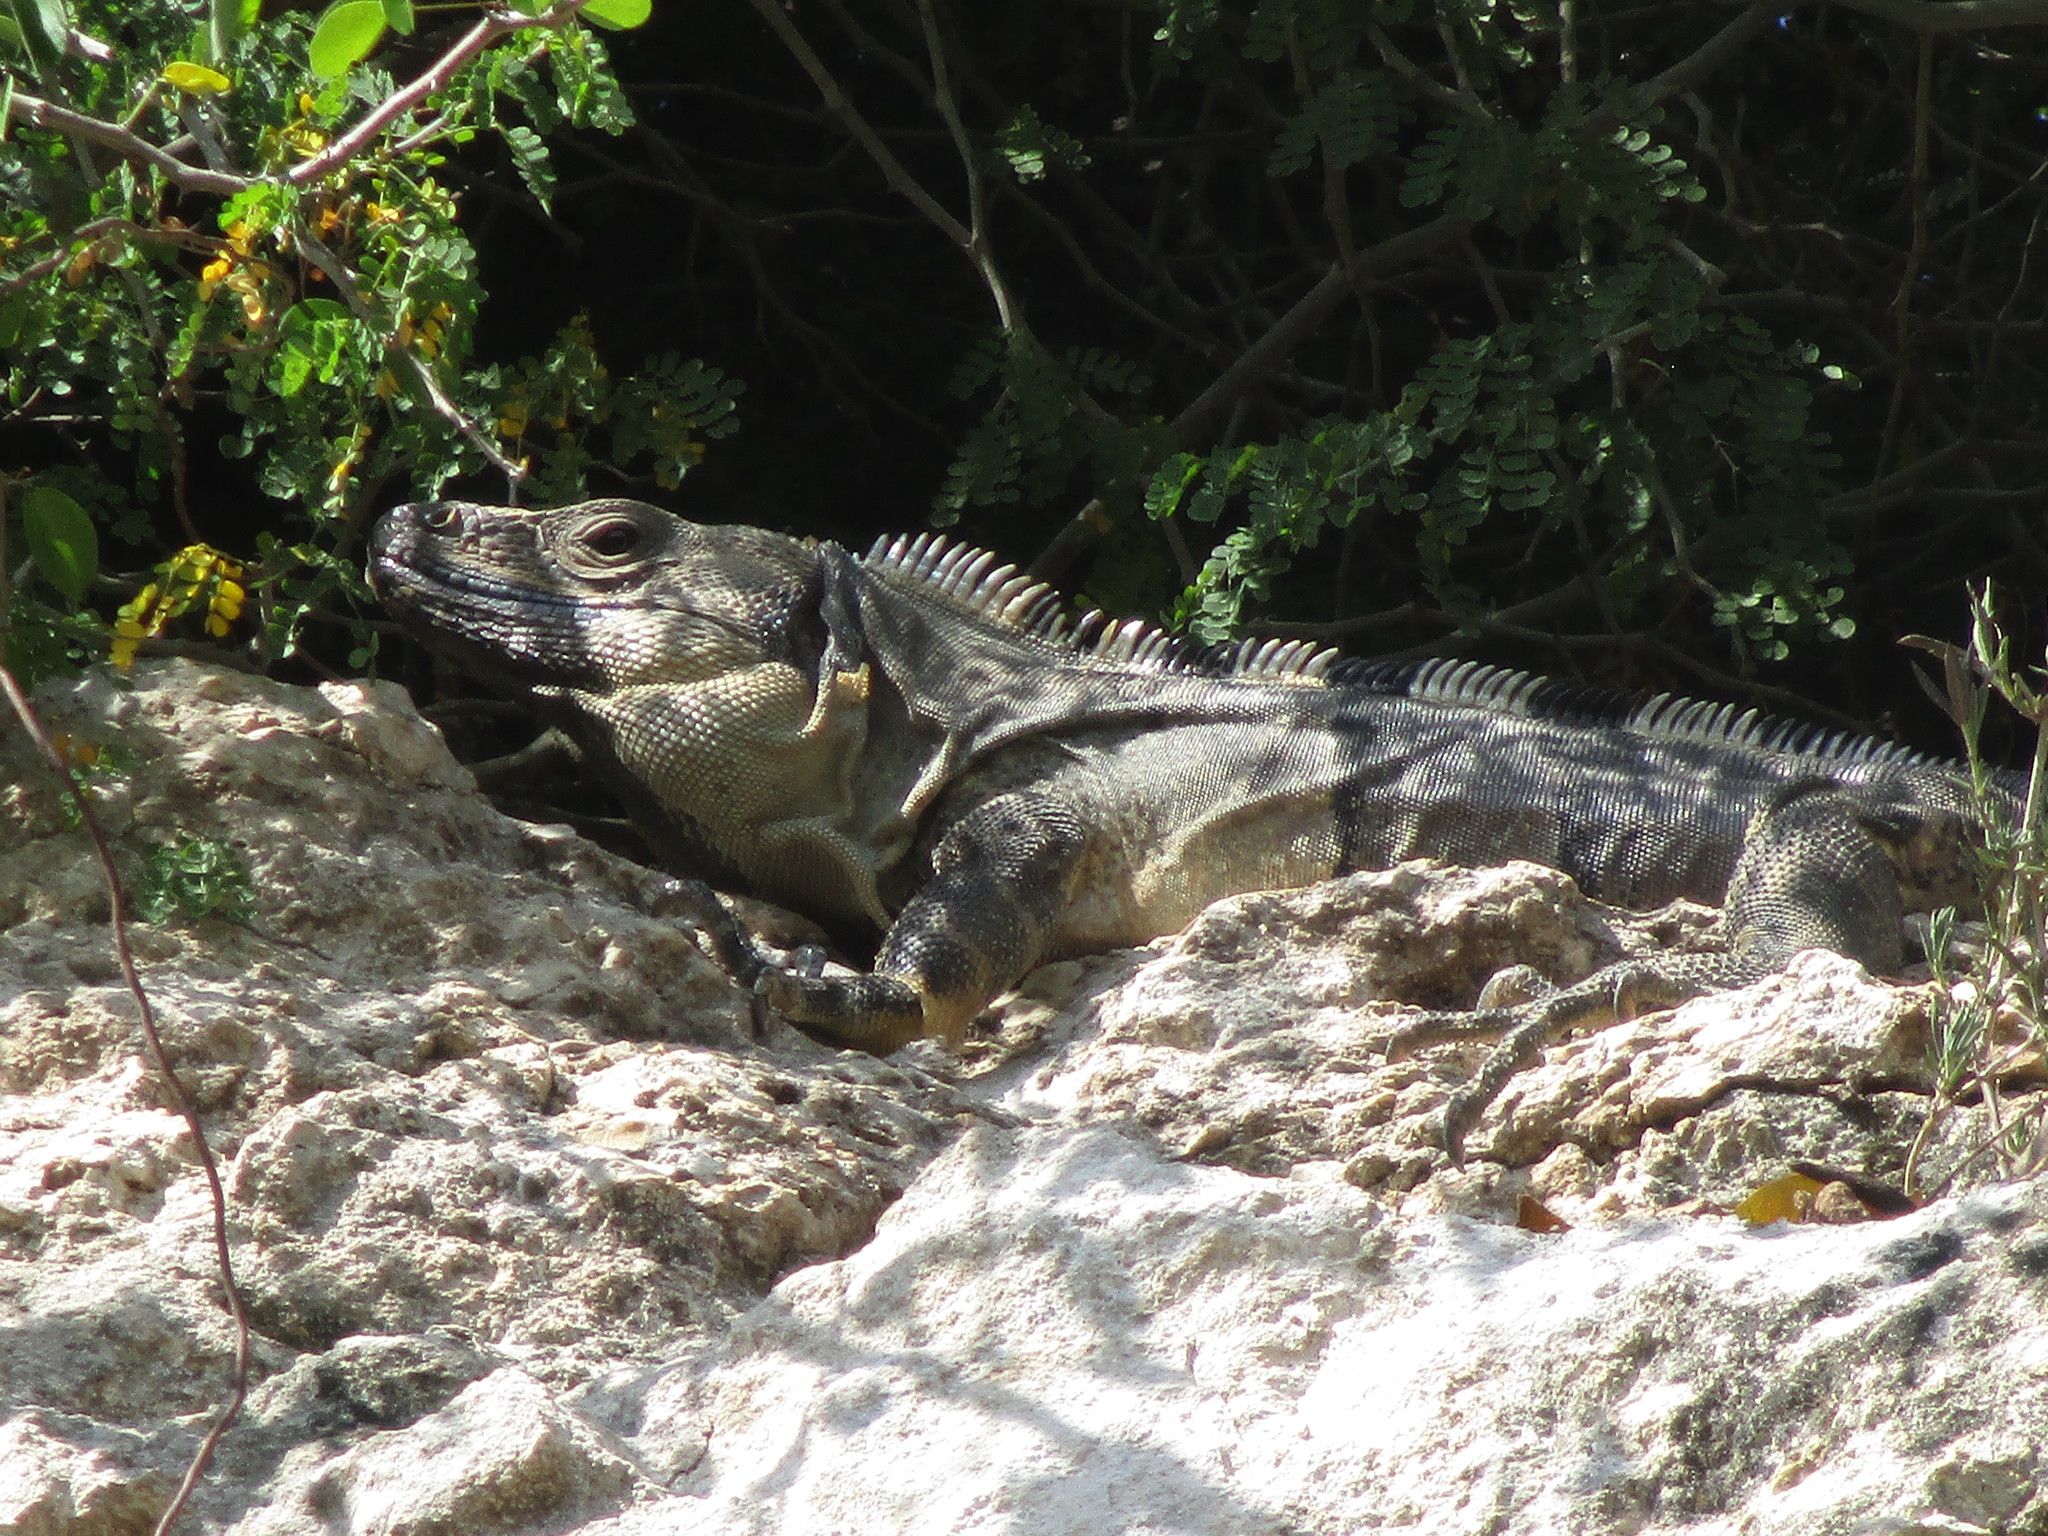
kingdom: Animalia
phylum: Chordata
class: Squamata
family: Iguanidae
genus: Ctenosaura
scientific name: Ctenosaura similis
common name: Black spiny-tailed iguana
